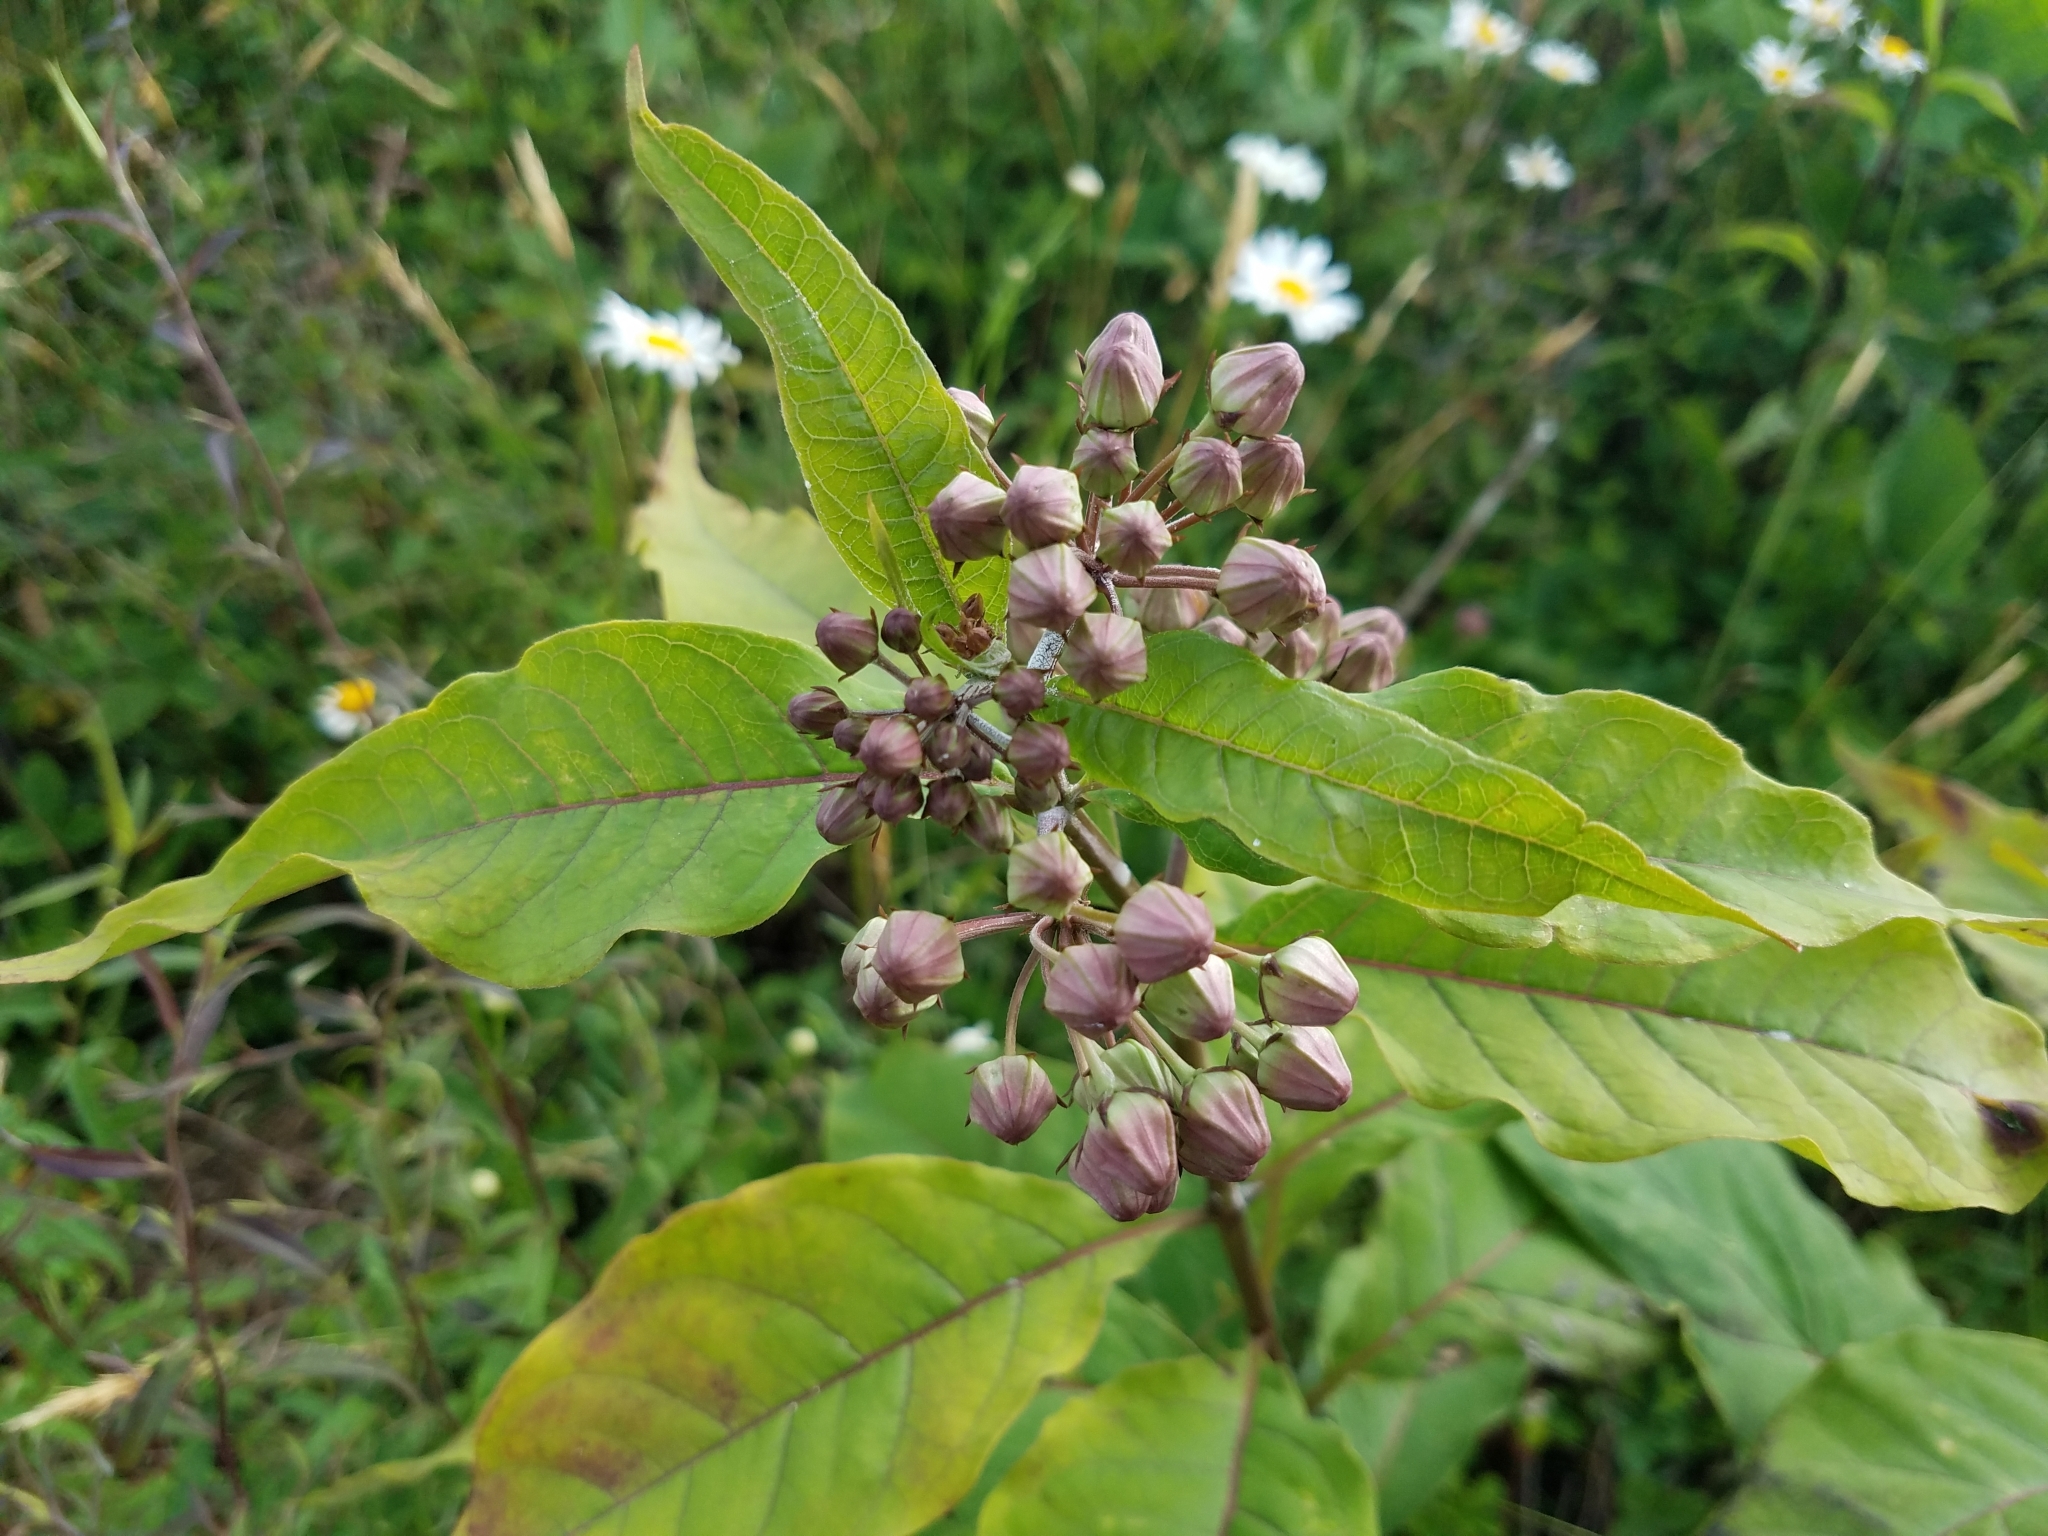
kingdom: Plantae
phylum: Tracheophyta
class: Magnoliopsida
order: Gentianales
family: Apocynaceae
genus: Asclepias
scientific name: Asclepias exaltata
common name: Poke milkweed
